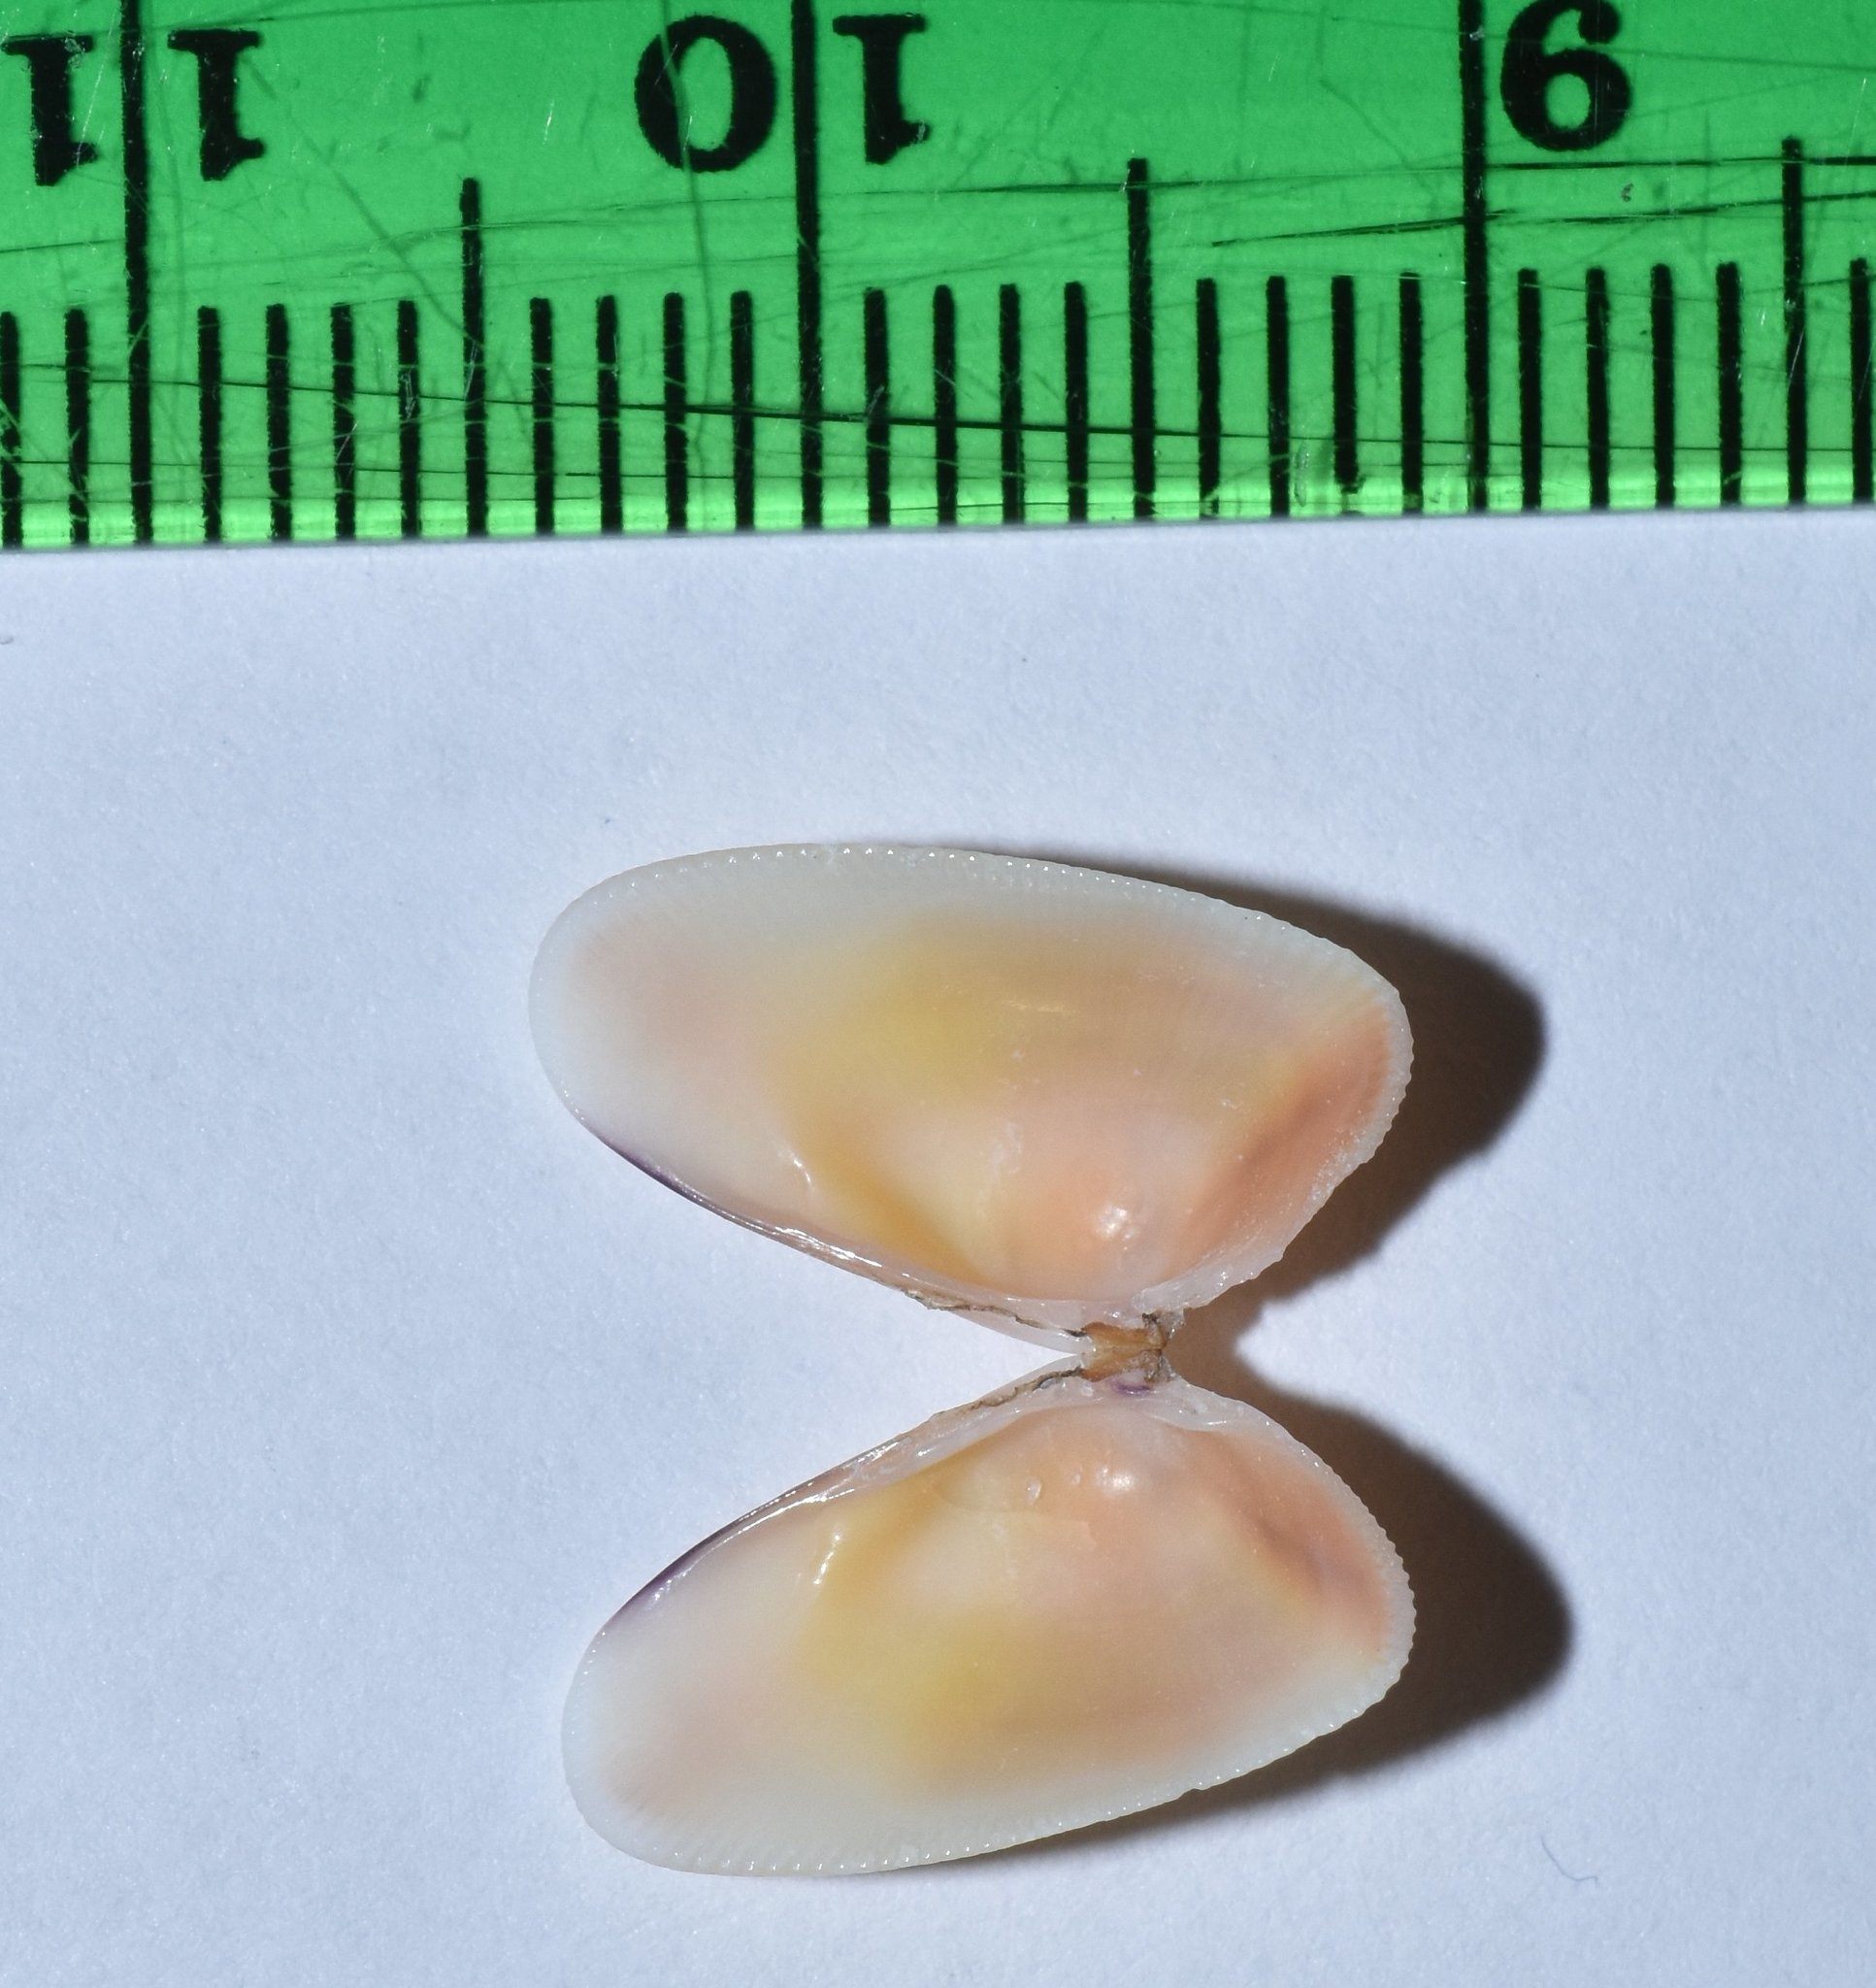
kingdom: Animalia
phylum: Mollusca
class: Bivalvia
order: Cardiida
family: Donacidae
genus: Donax
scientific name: Donax variabilis
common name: Butterfly shell
